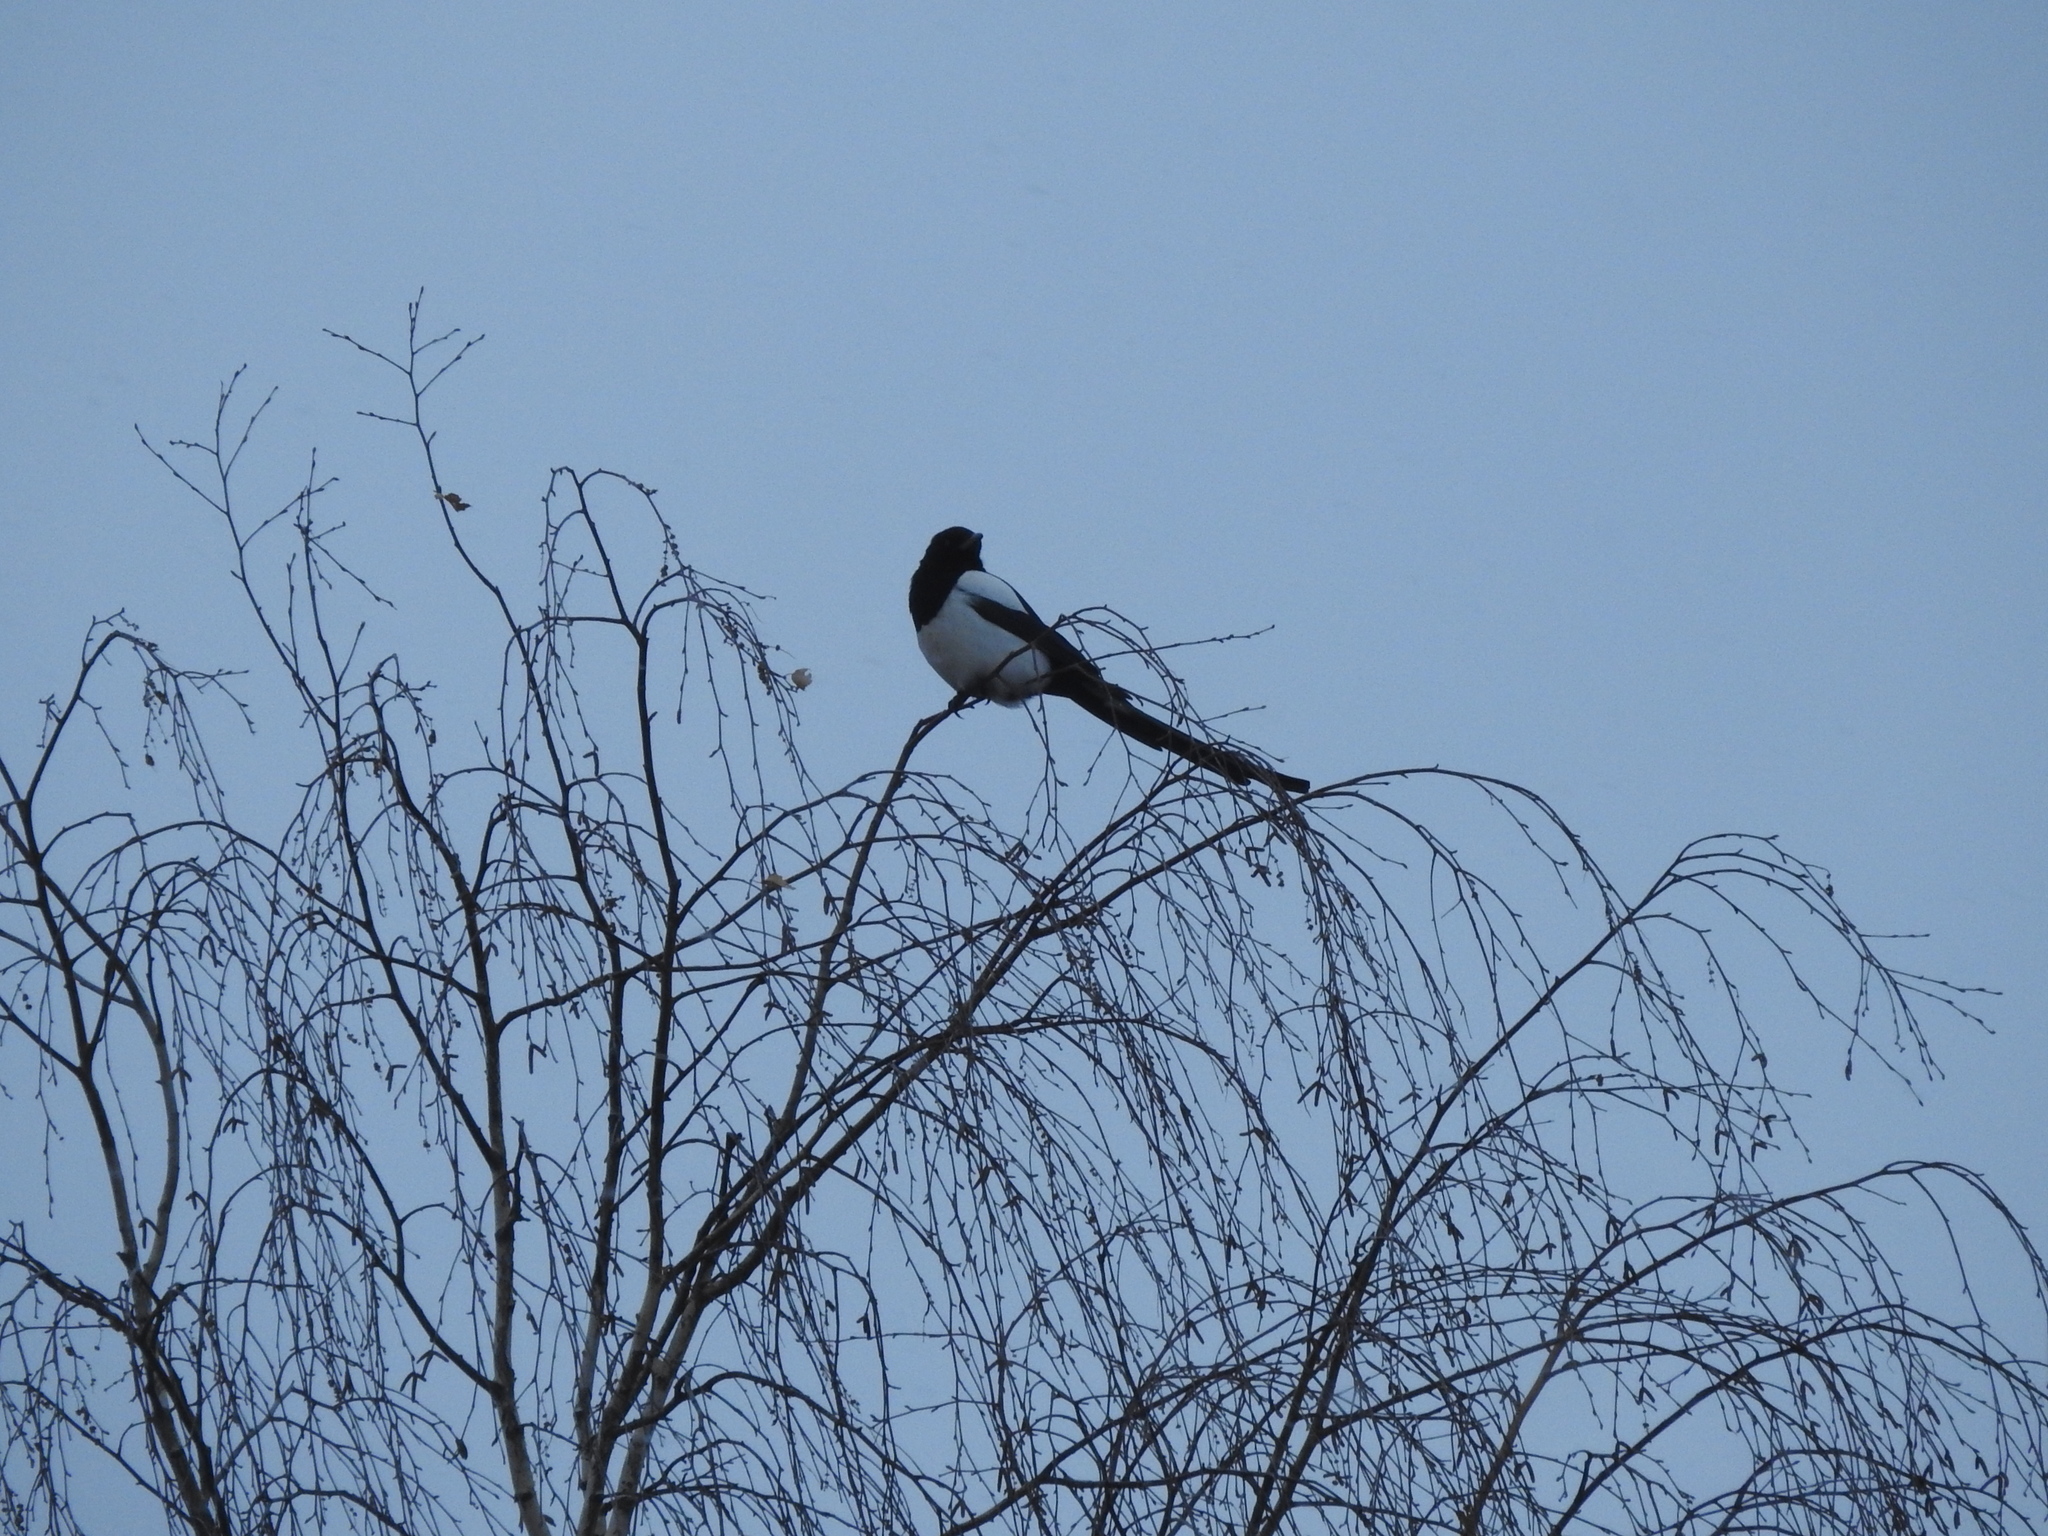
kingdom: Animalia
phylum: Chordata
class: Aves
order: Passeriformes
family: Corvidae
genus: Pica
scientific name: Pica pica
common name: Eurasian magpie
